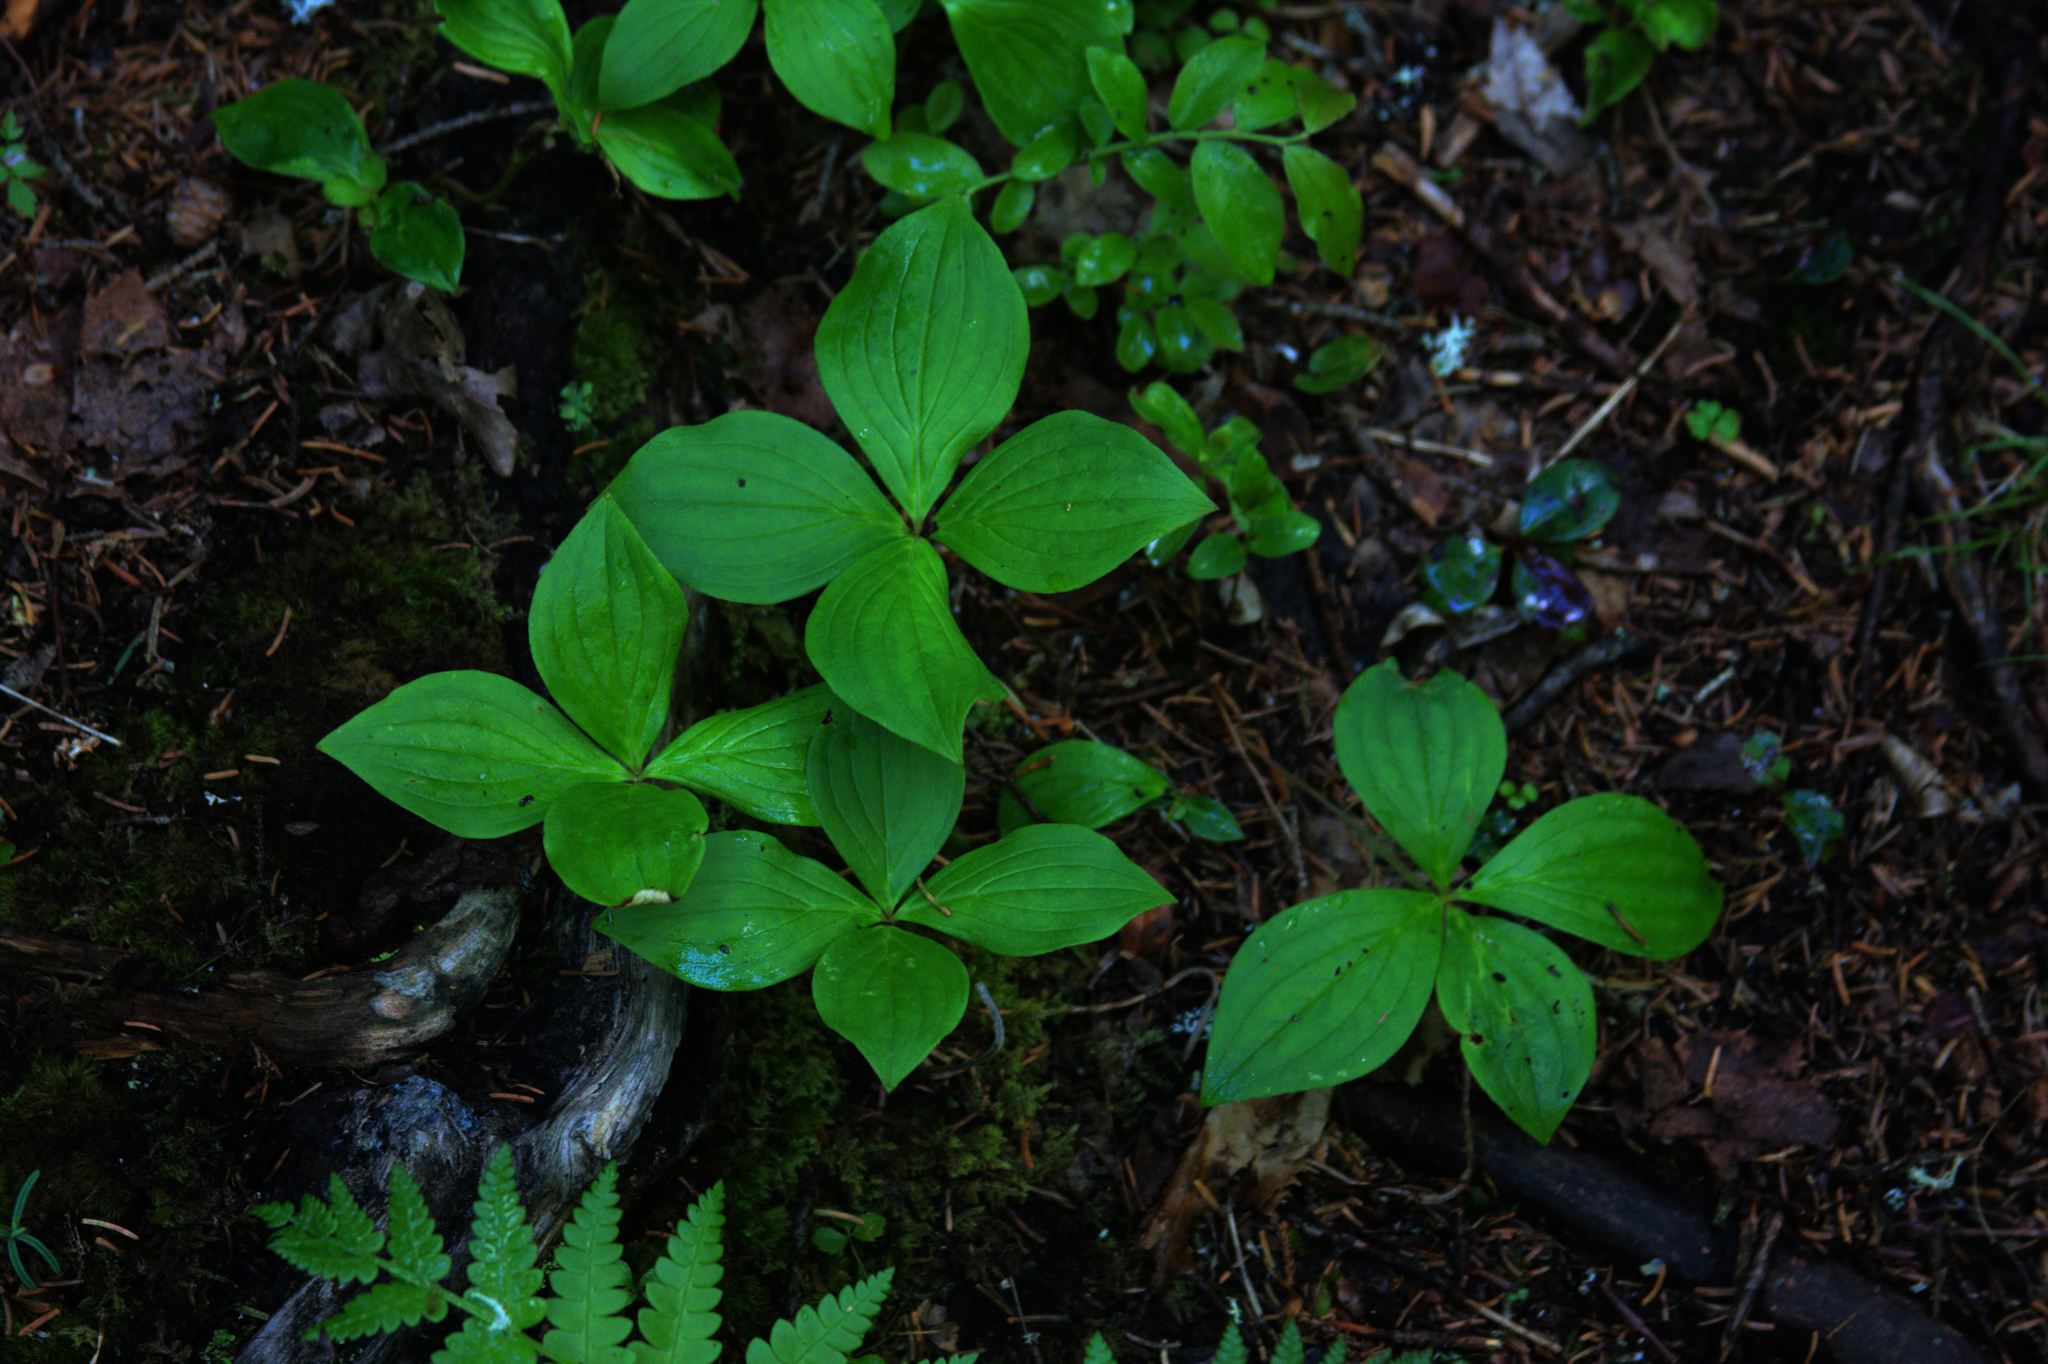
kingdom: Plantae
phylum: Tracheophyta
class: Magnoliopsida
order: Cornales
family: Cornaceae
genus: Cornus
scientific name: Cornus canadensis
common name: Creeping dogwood
